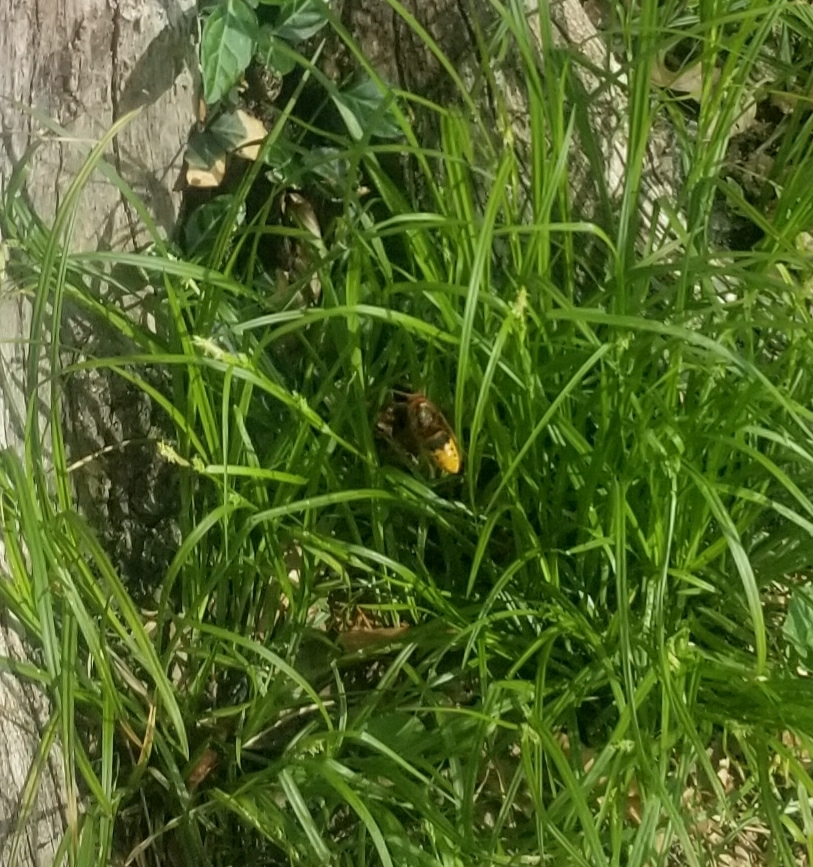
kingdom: Animalia
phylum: Arthropoda
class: Insecta
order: Hymenoptera
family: Vespidae
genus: Vespa
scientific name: Vespa crabro
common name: Hornet
